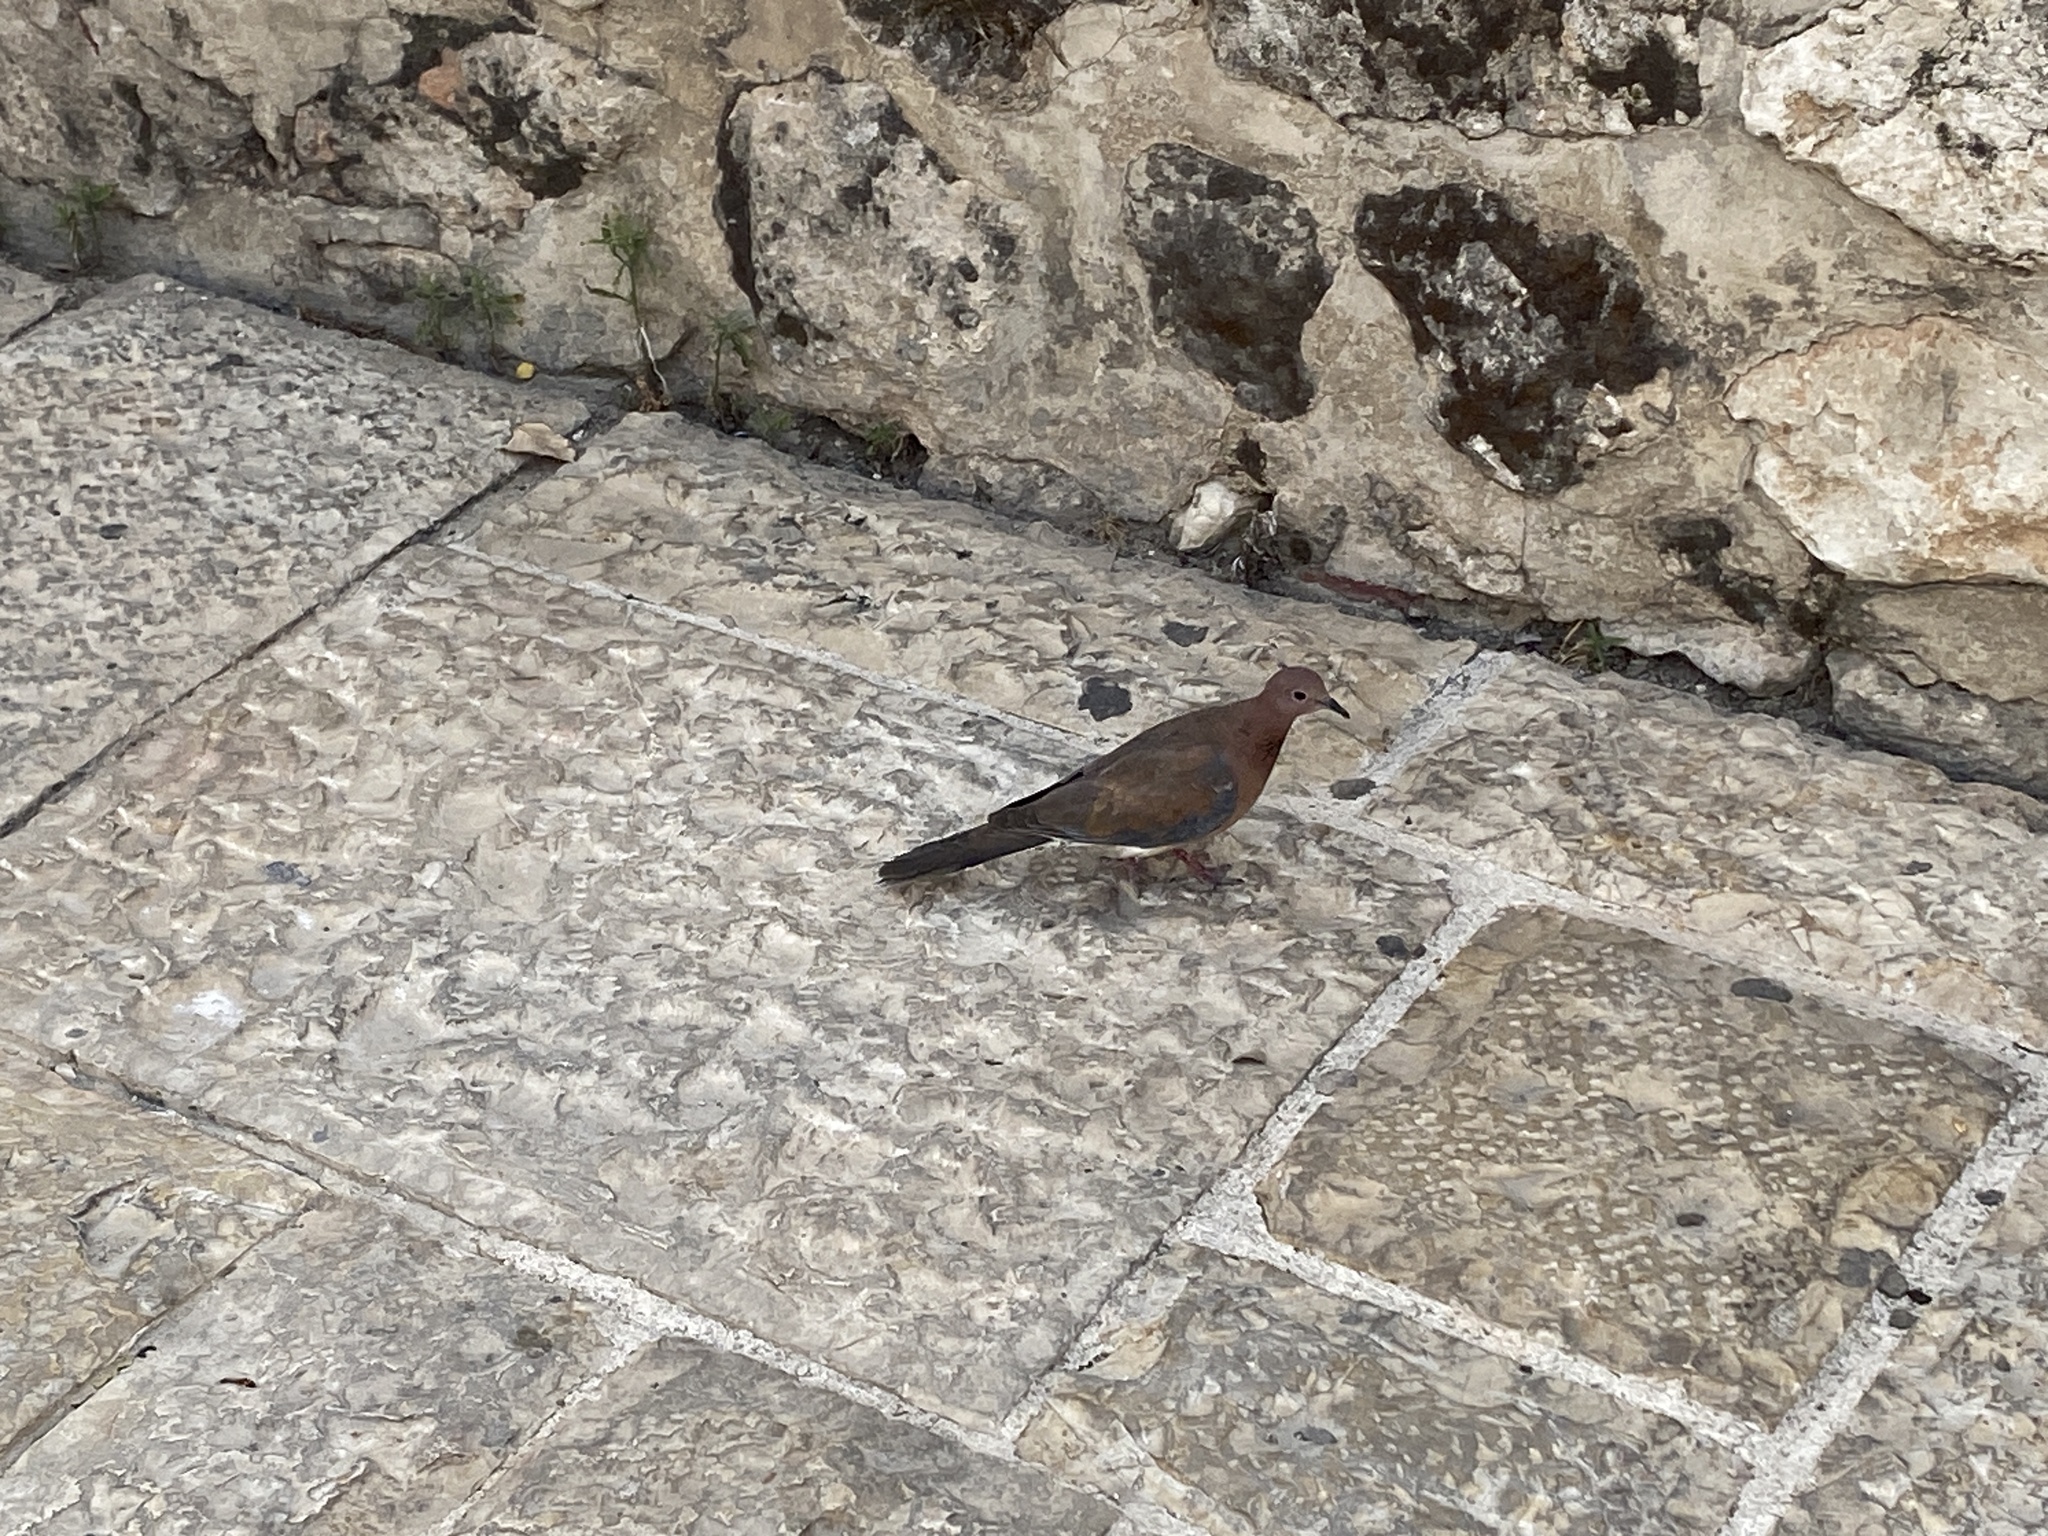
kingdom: Animalia
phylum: Chordata
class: Aves
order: Columbiformes
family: Columbidae
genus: Spilopelia
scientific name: Spilopelia senegalensis
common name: Laughing dove
